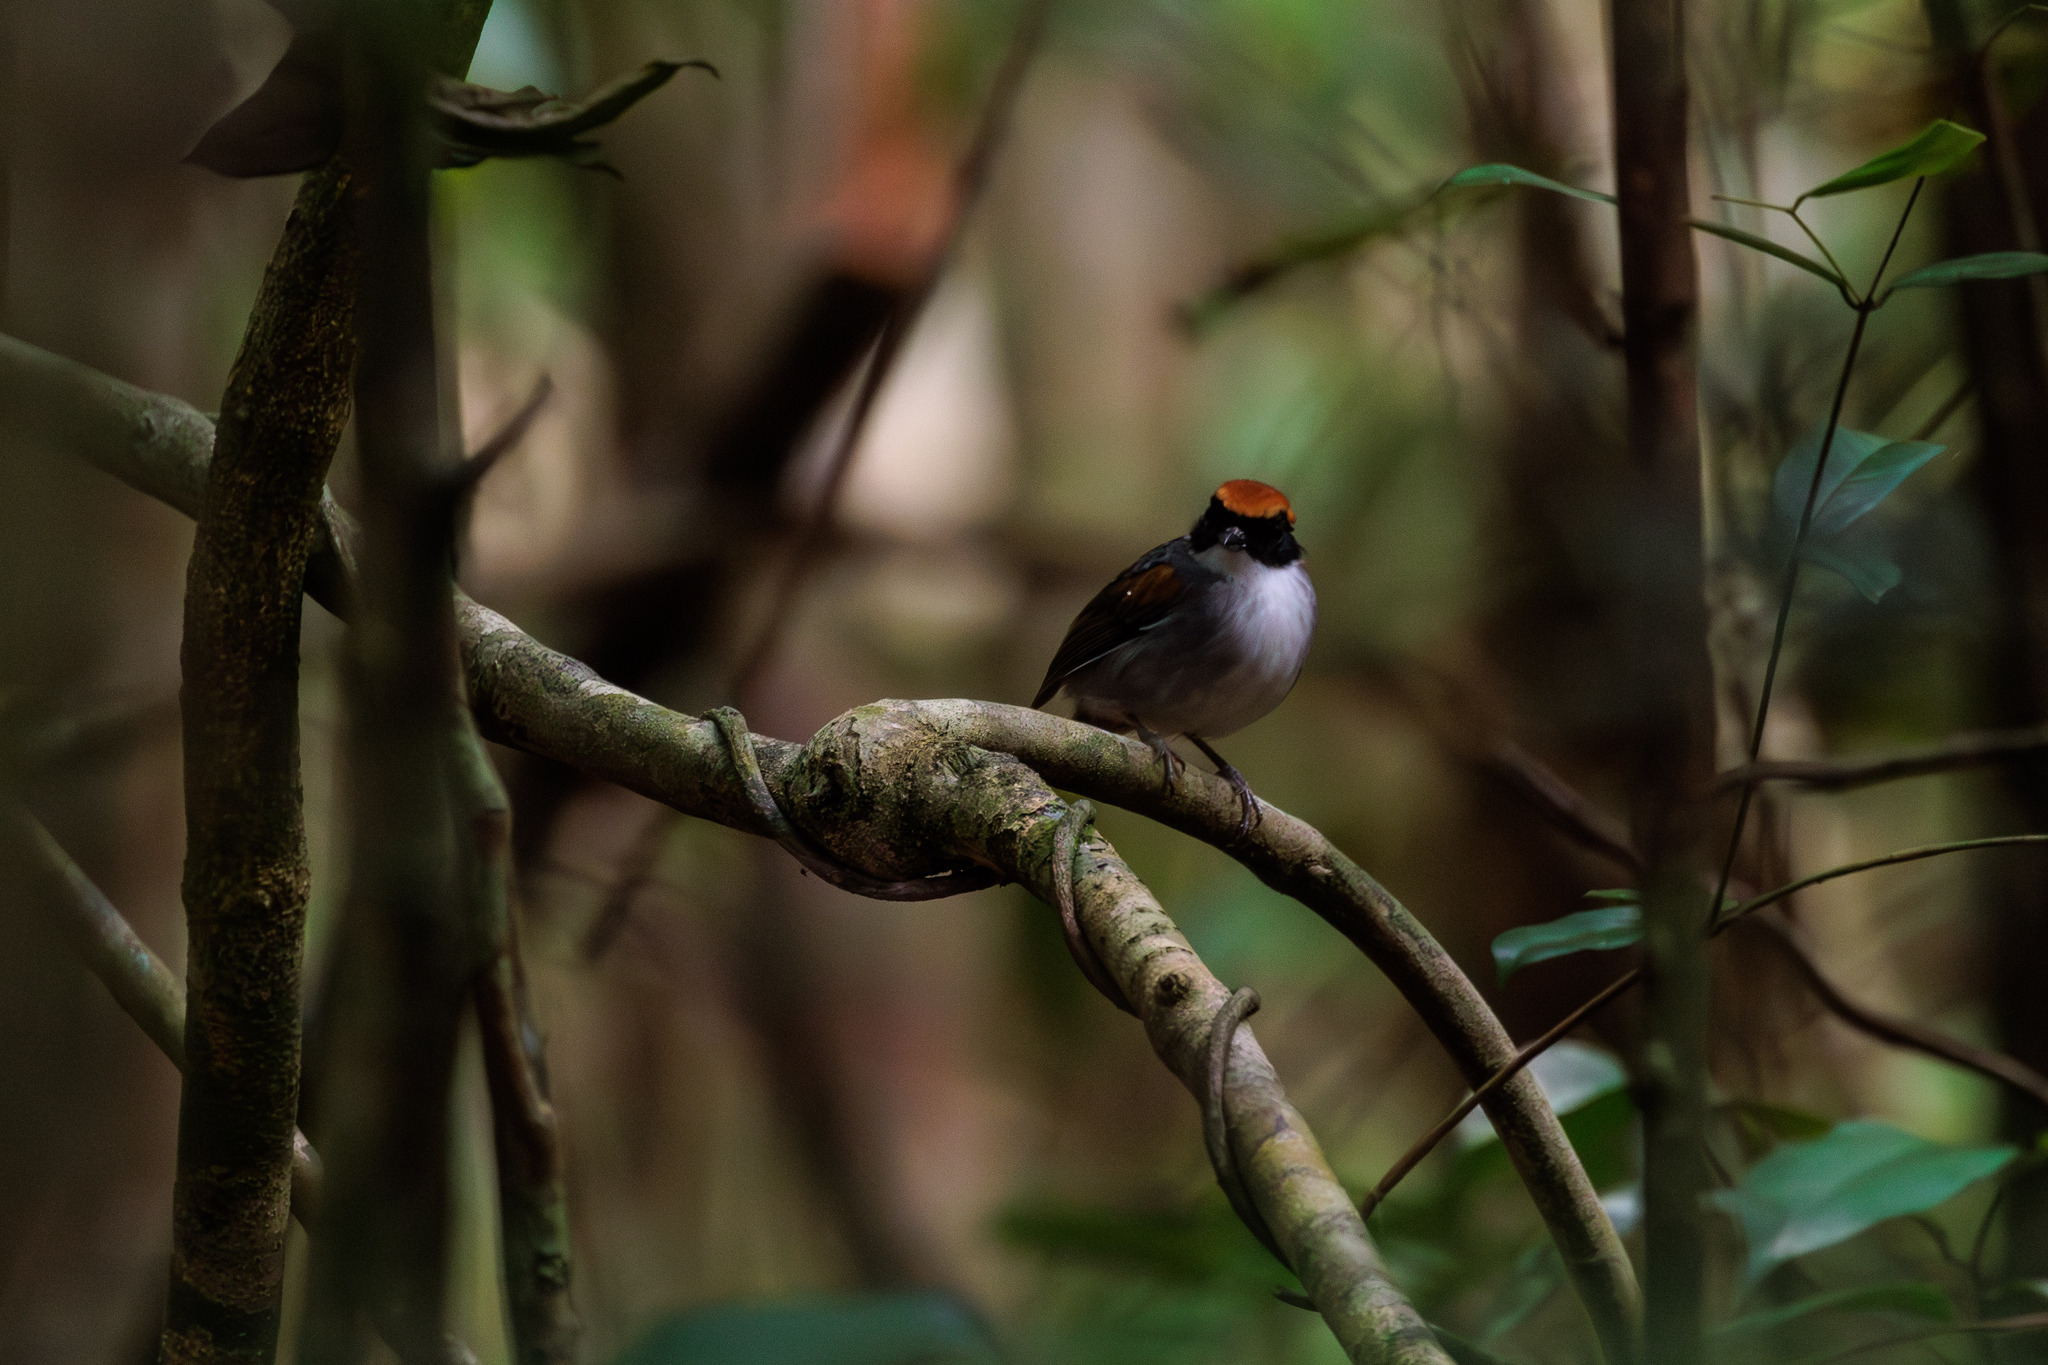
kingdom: Animalia
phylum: Chordata
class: Aves
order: Passeriformes
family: Conopophagidae
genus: Conopophaga
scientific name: Conopophaga melanops
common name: Black-cheeked gnateater
